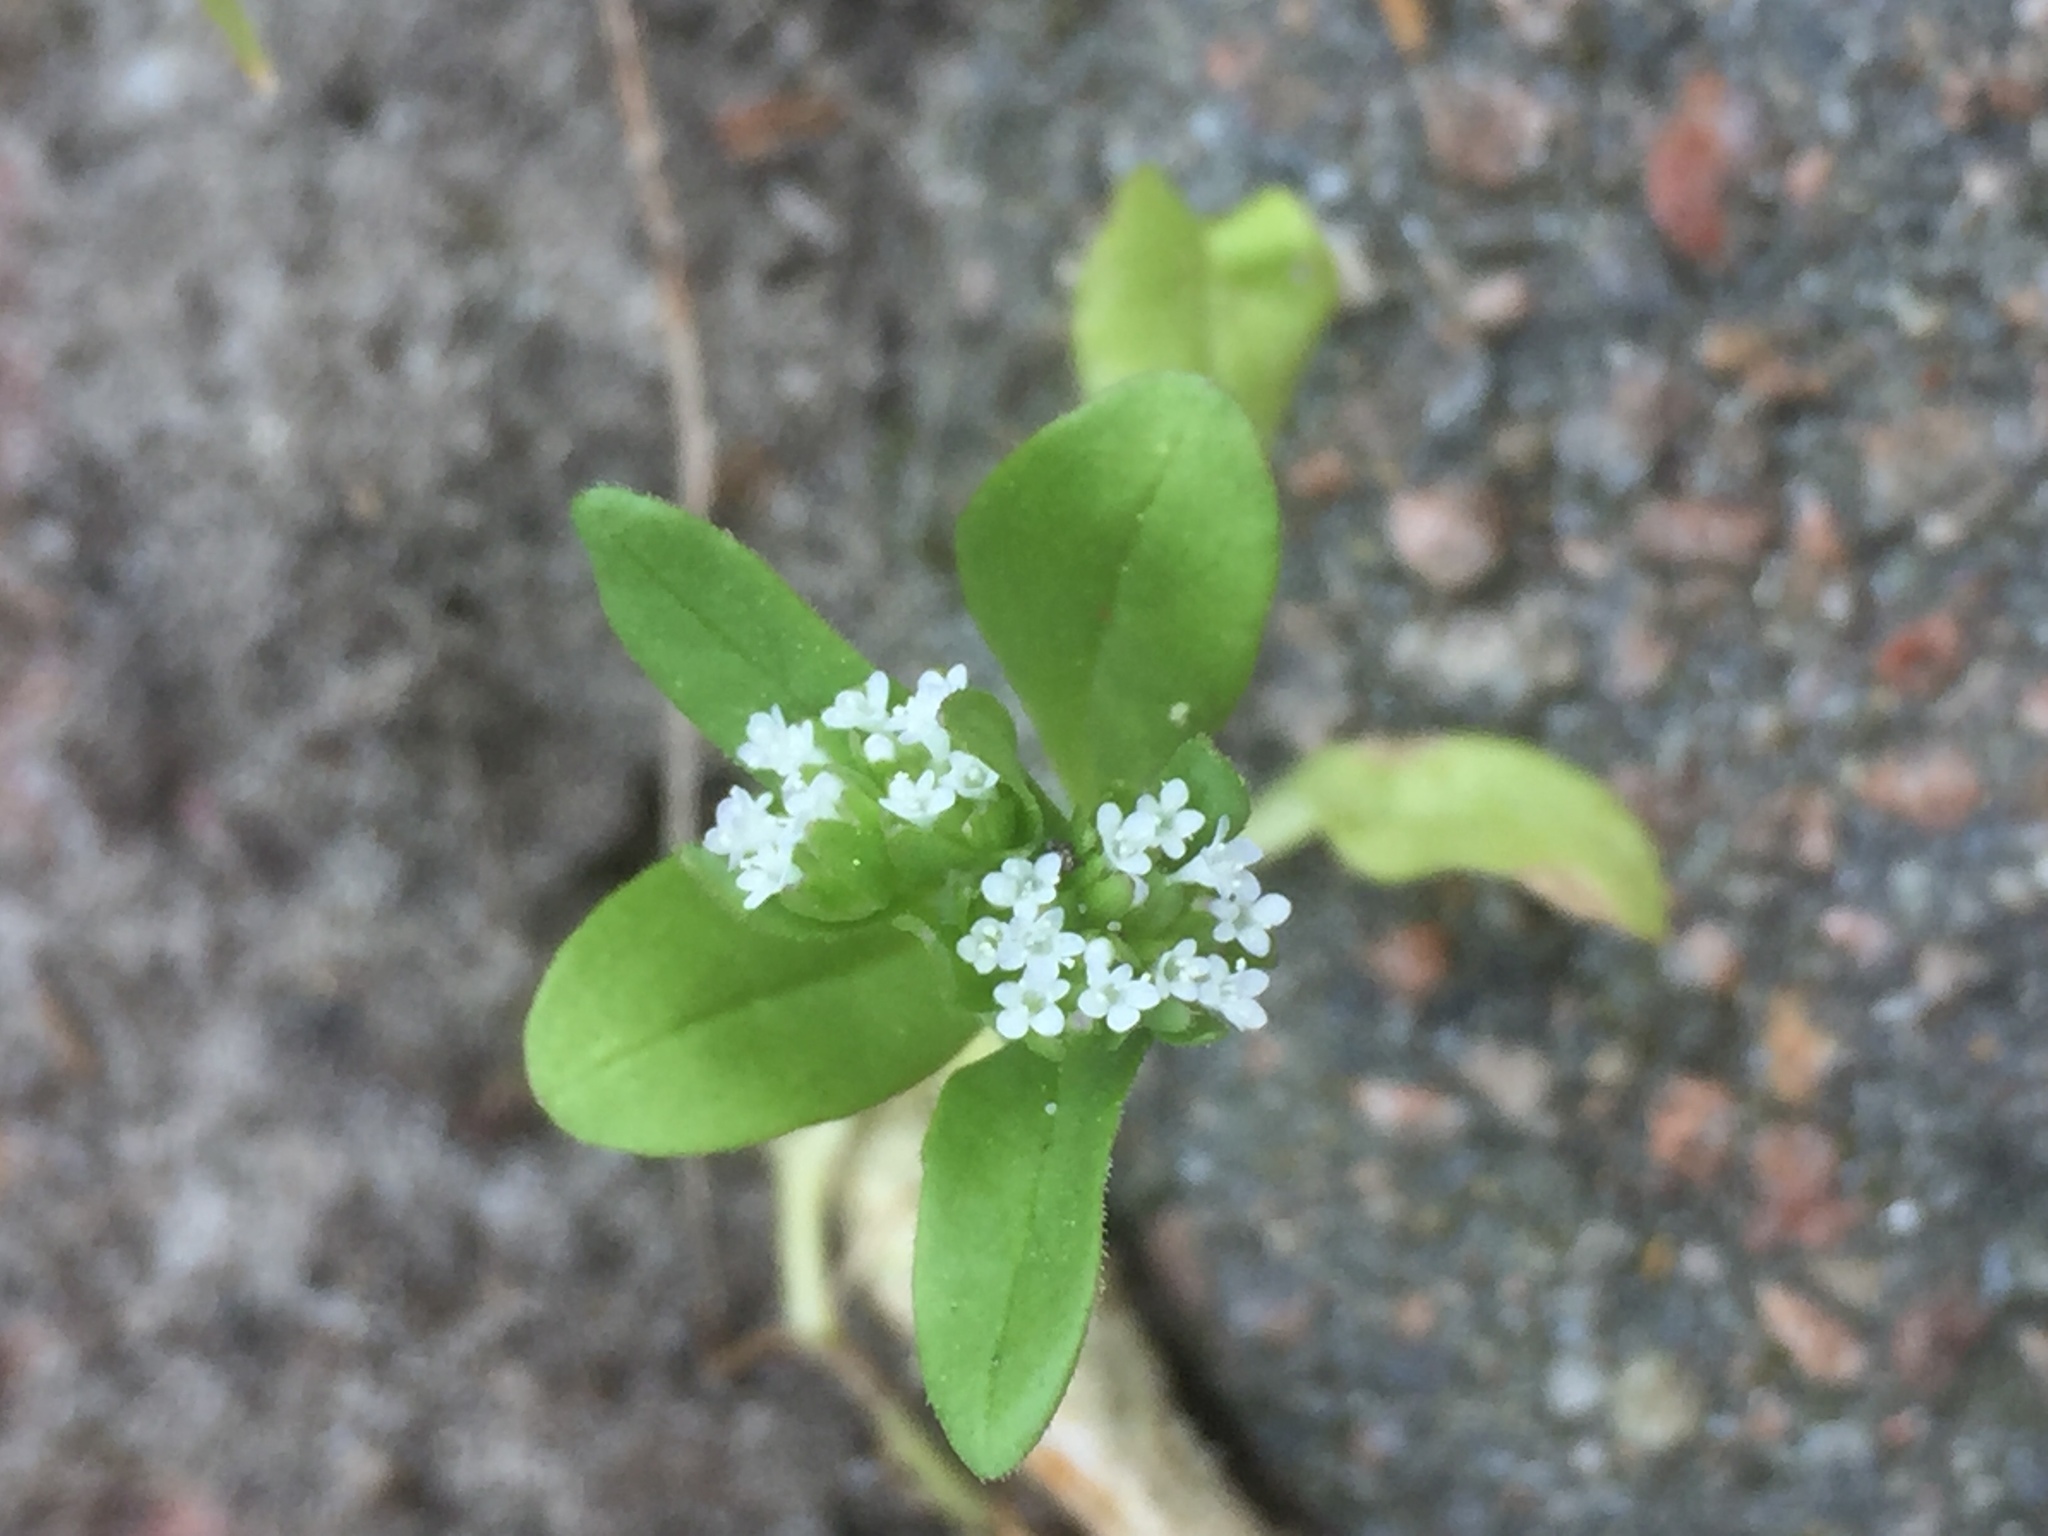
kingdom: Plantae
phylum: Tracheophyta
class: Magnoliopsida
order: Dipsacales
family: Caprifoliaceae
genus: Valerianella
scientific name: Valerianella locusta
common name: Common cornsalad
